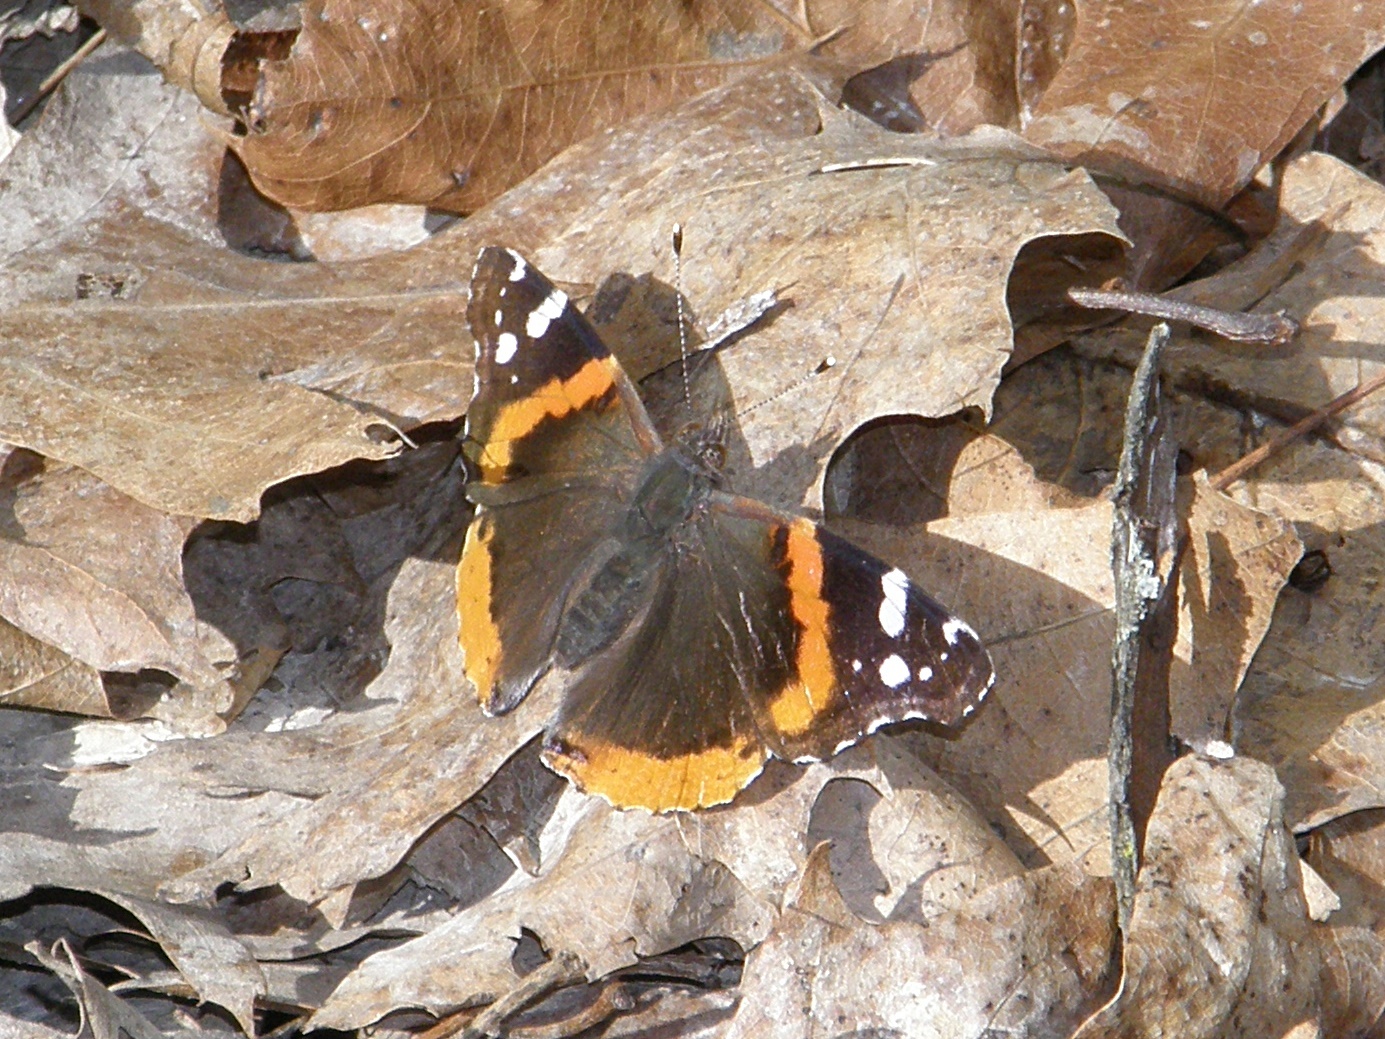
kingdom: Animalia
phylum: Arthropoda
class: Insecta
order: Lepidoptera
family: Nymphalidae
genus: Vanessa
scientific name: Vanessa atalanta
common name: Red admiral
